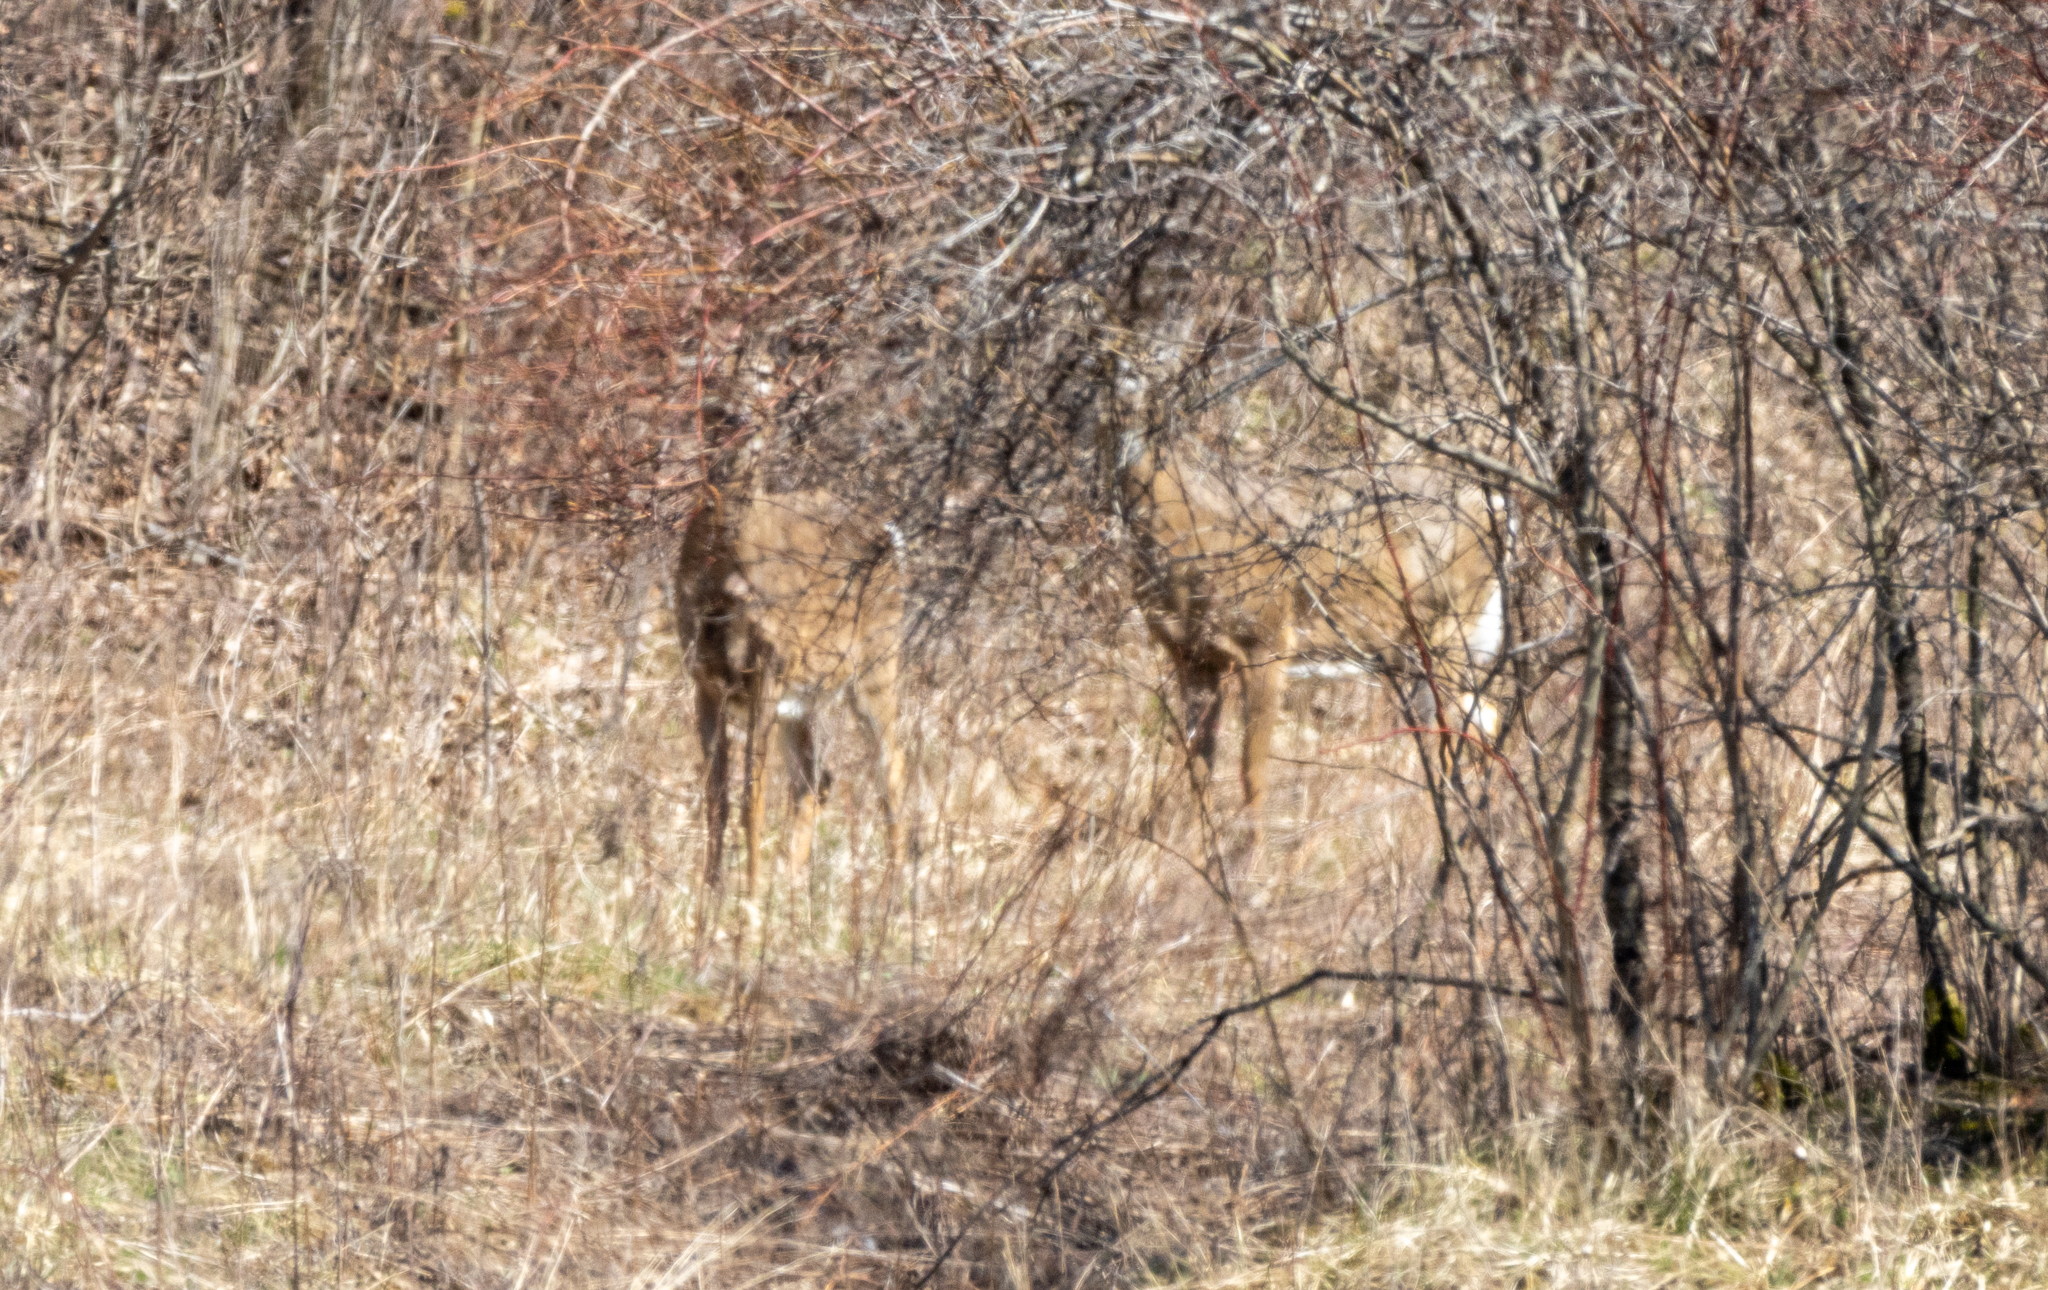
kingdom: Animalia
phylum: Chordata
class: Mammalia
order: Artiodactyla
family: Cervidae
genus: Odocoileus
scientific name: Odocoileus virginianus
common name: White-tailed deer
